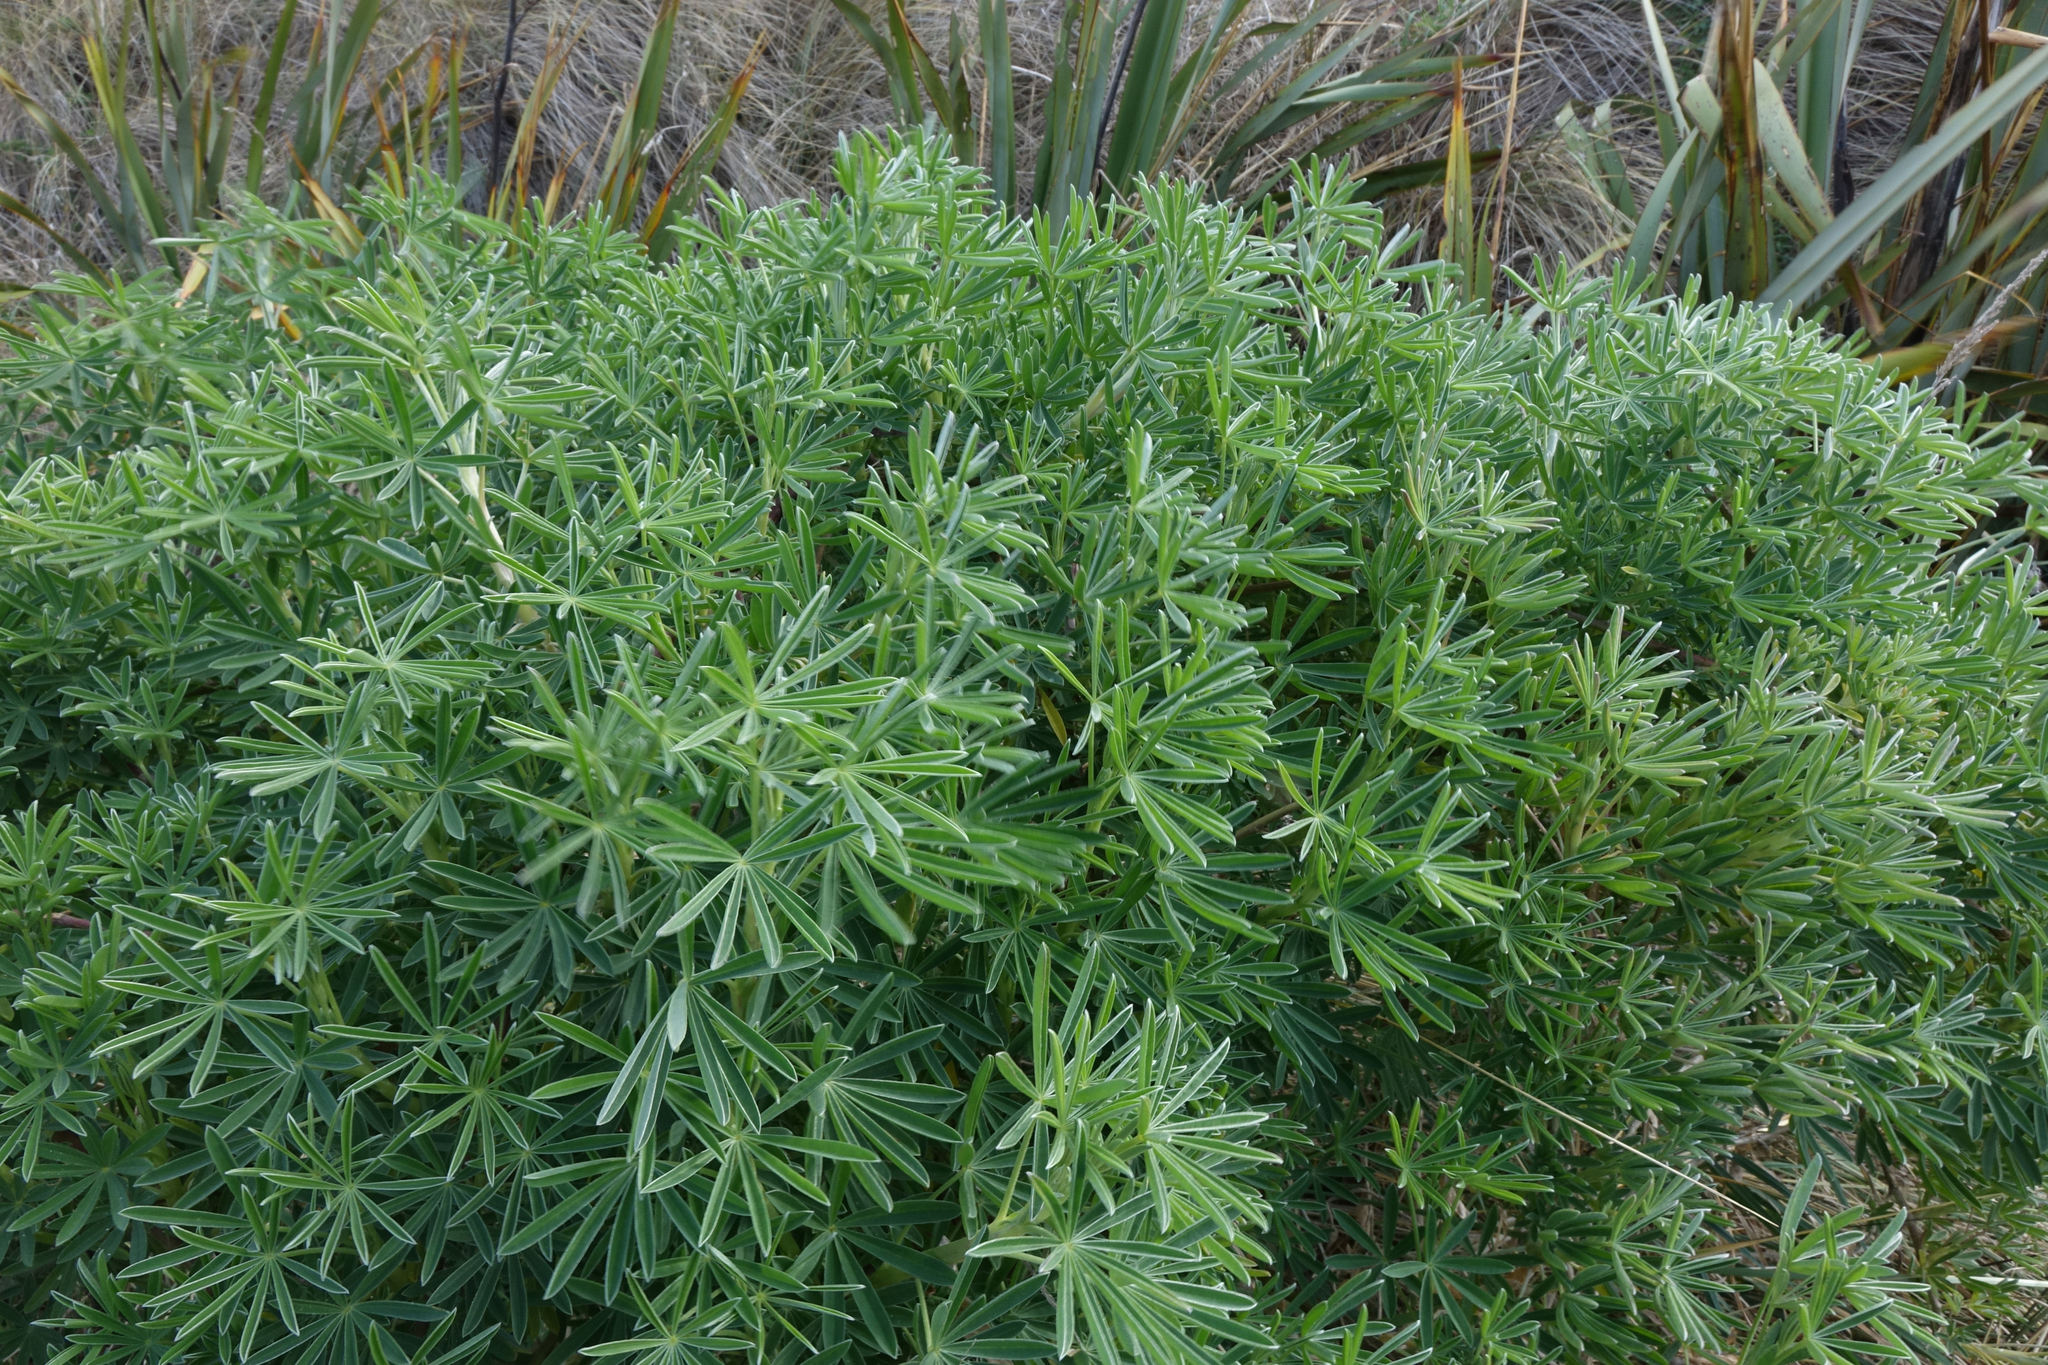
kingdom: Plantae
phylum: Tracheophyta
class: Magnoliopsida
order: Fabales
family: Fabaceae
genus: Lupinus
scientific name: Lupinus arboreus
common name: Yellow bush lupine
